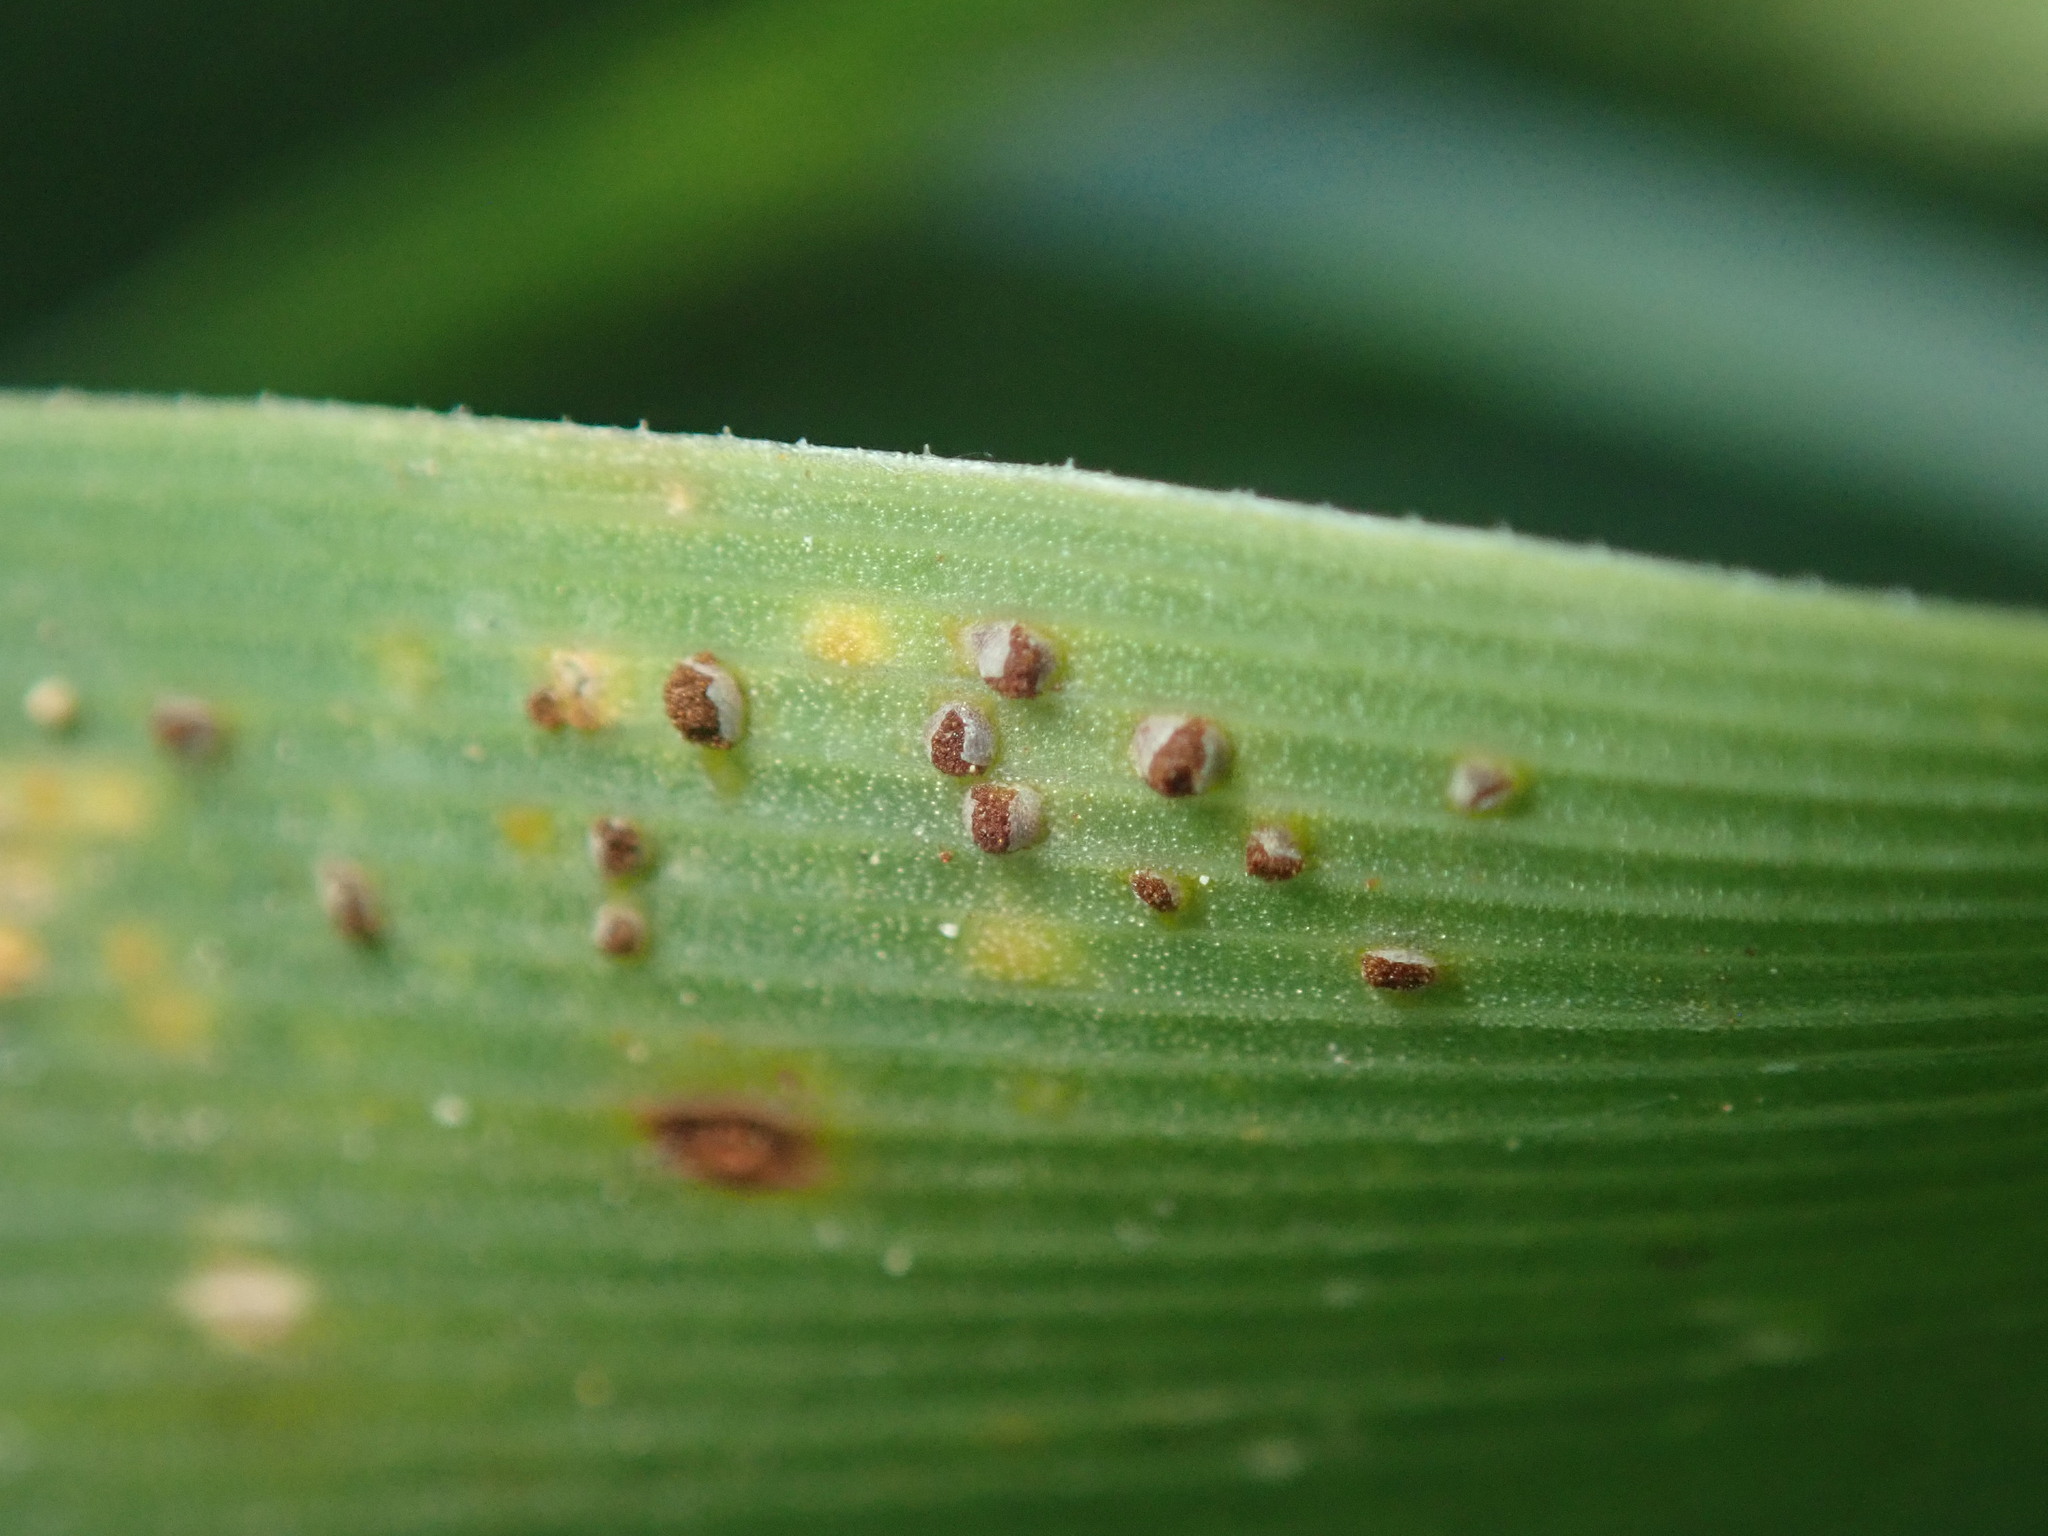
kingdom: Fungi
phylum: Basidiomycota
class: Pucciniomycetes
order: Pucciniales
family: Pucciniaceae
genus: Uromyces
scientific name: Uromyces chlorogali
